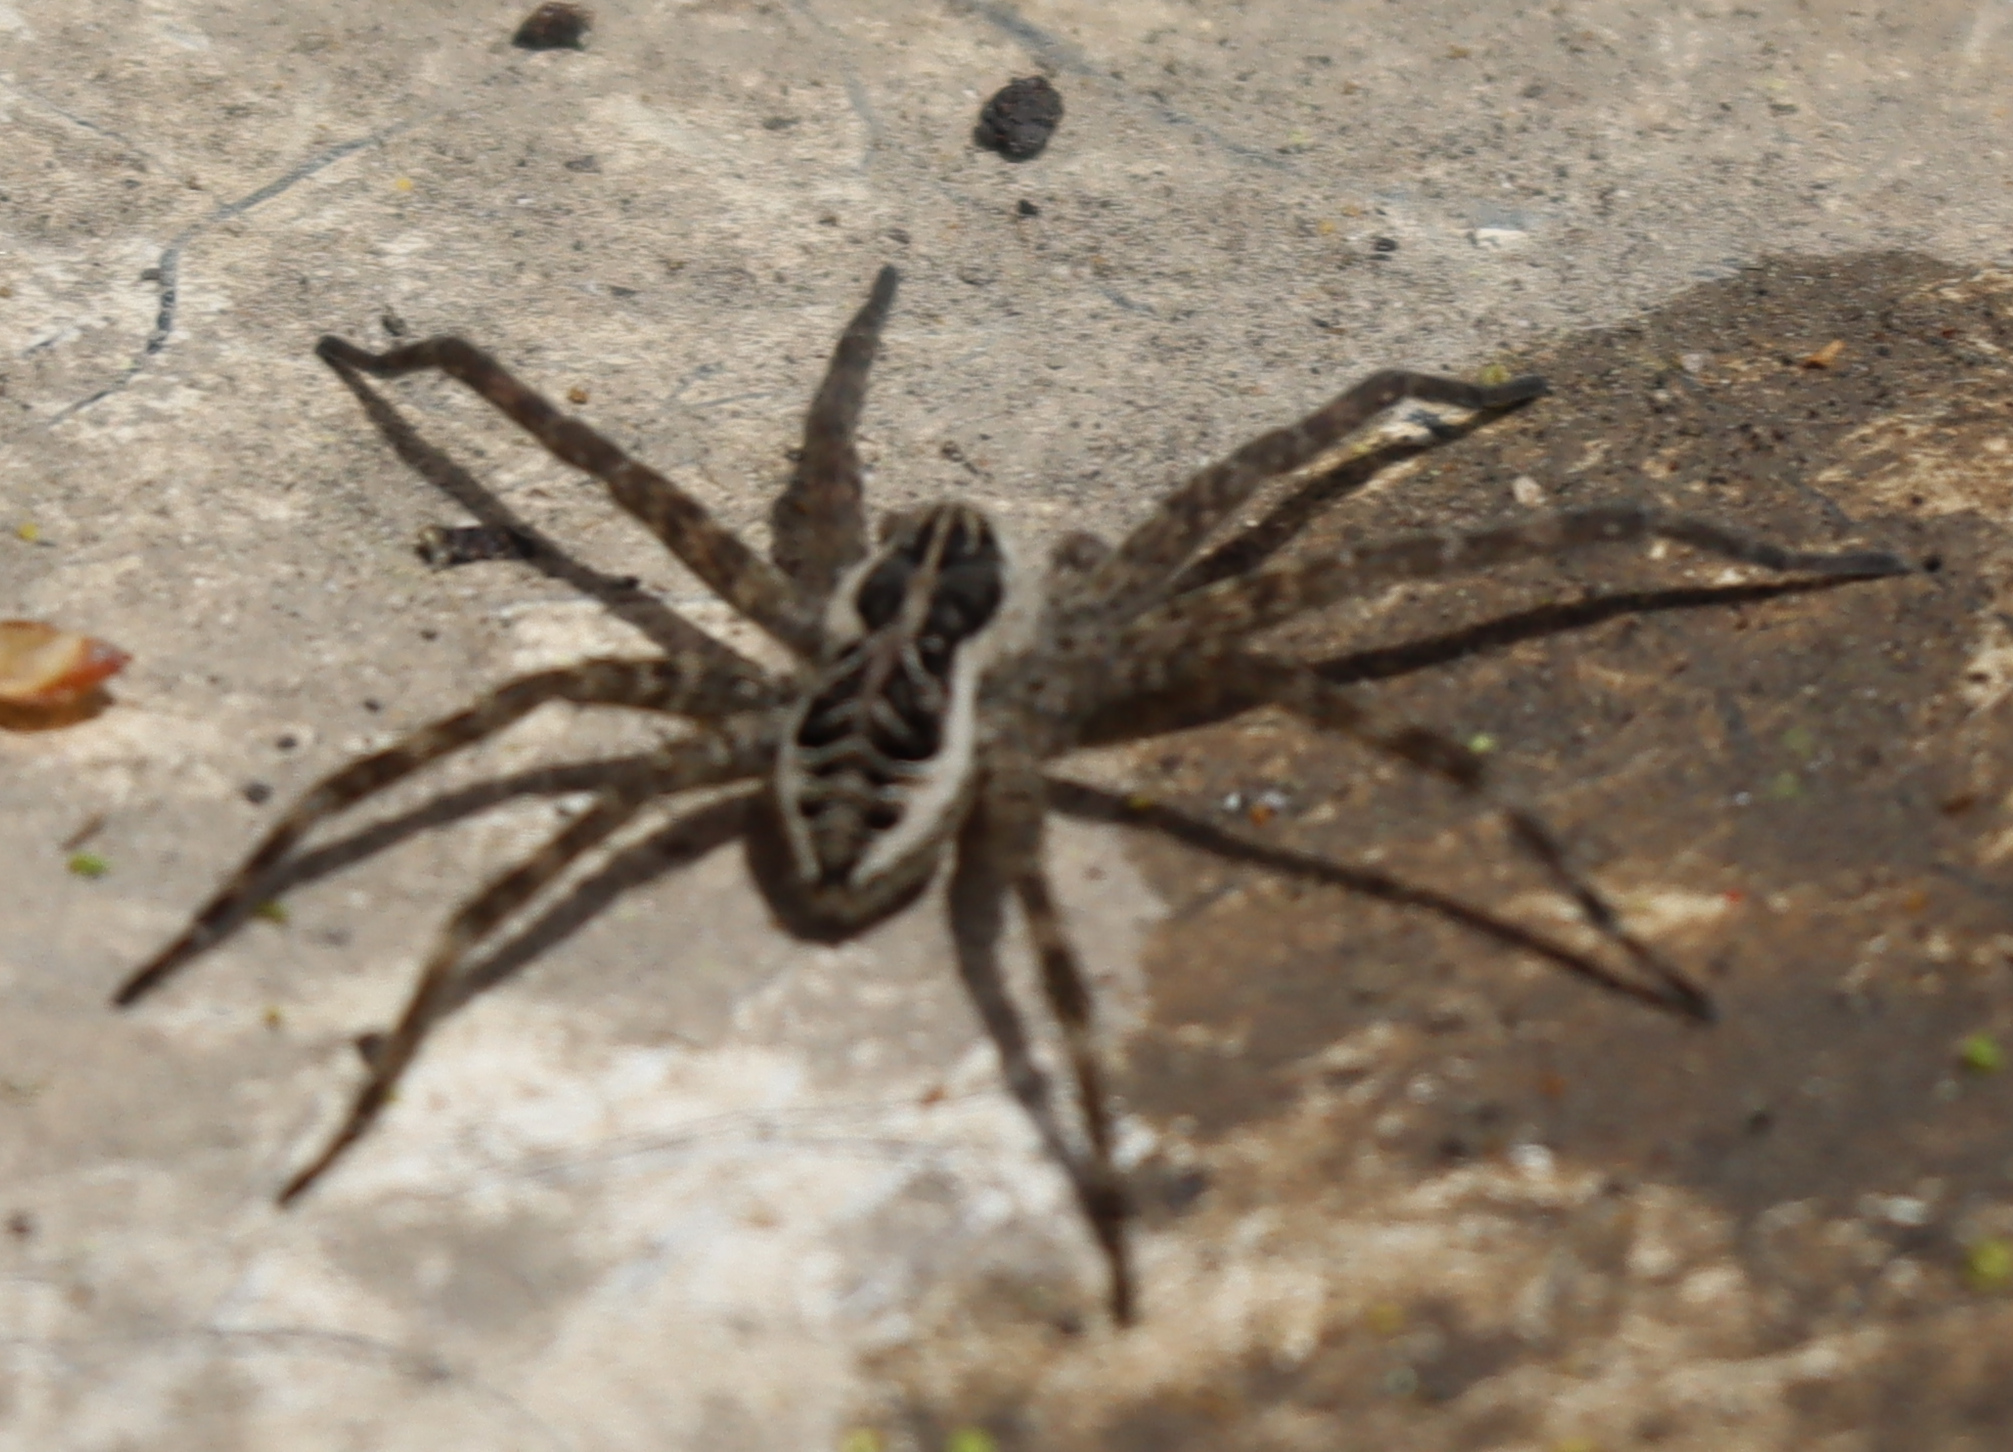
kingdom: Animalia
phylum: Arthropoda
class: Arachnida
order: Araneae
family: Pisauridae
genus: Dolomedes
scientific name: Dolomedes scriptus
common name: Striped fishing spider
